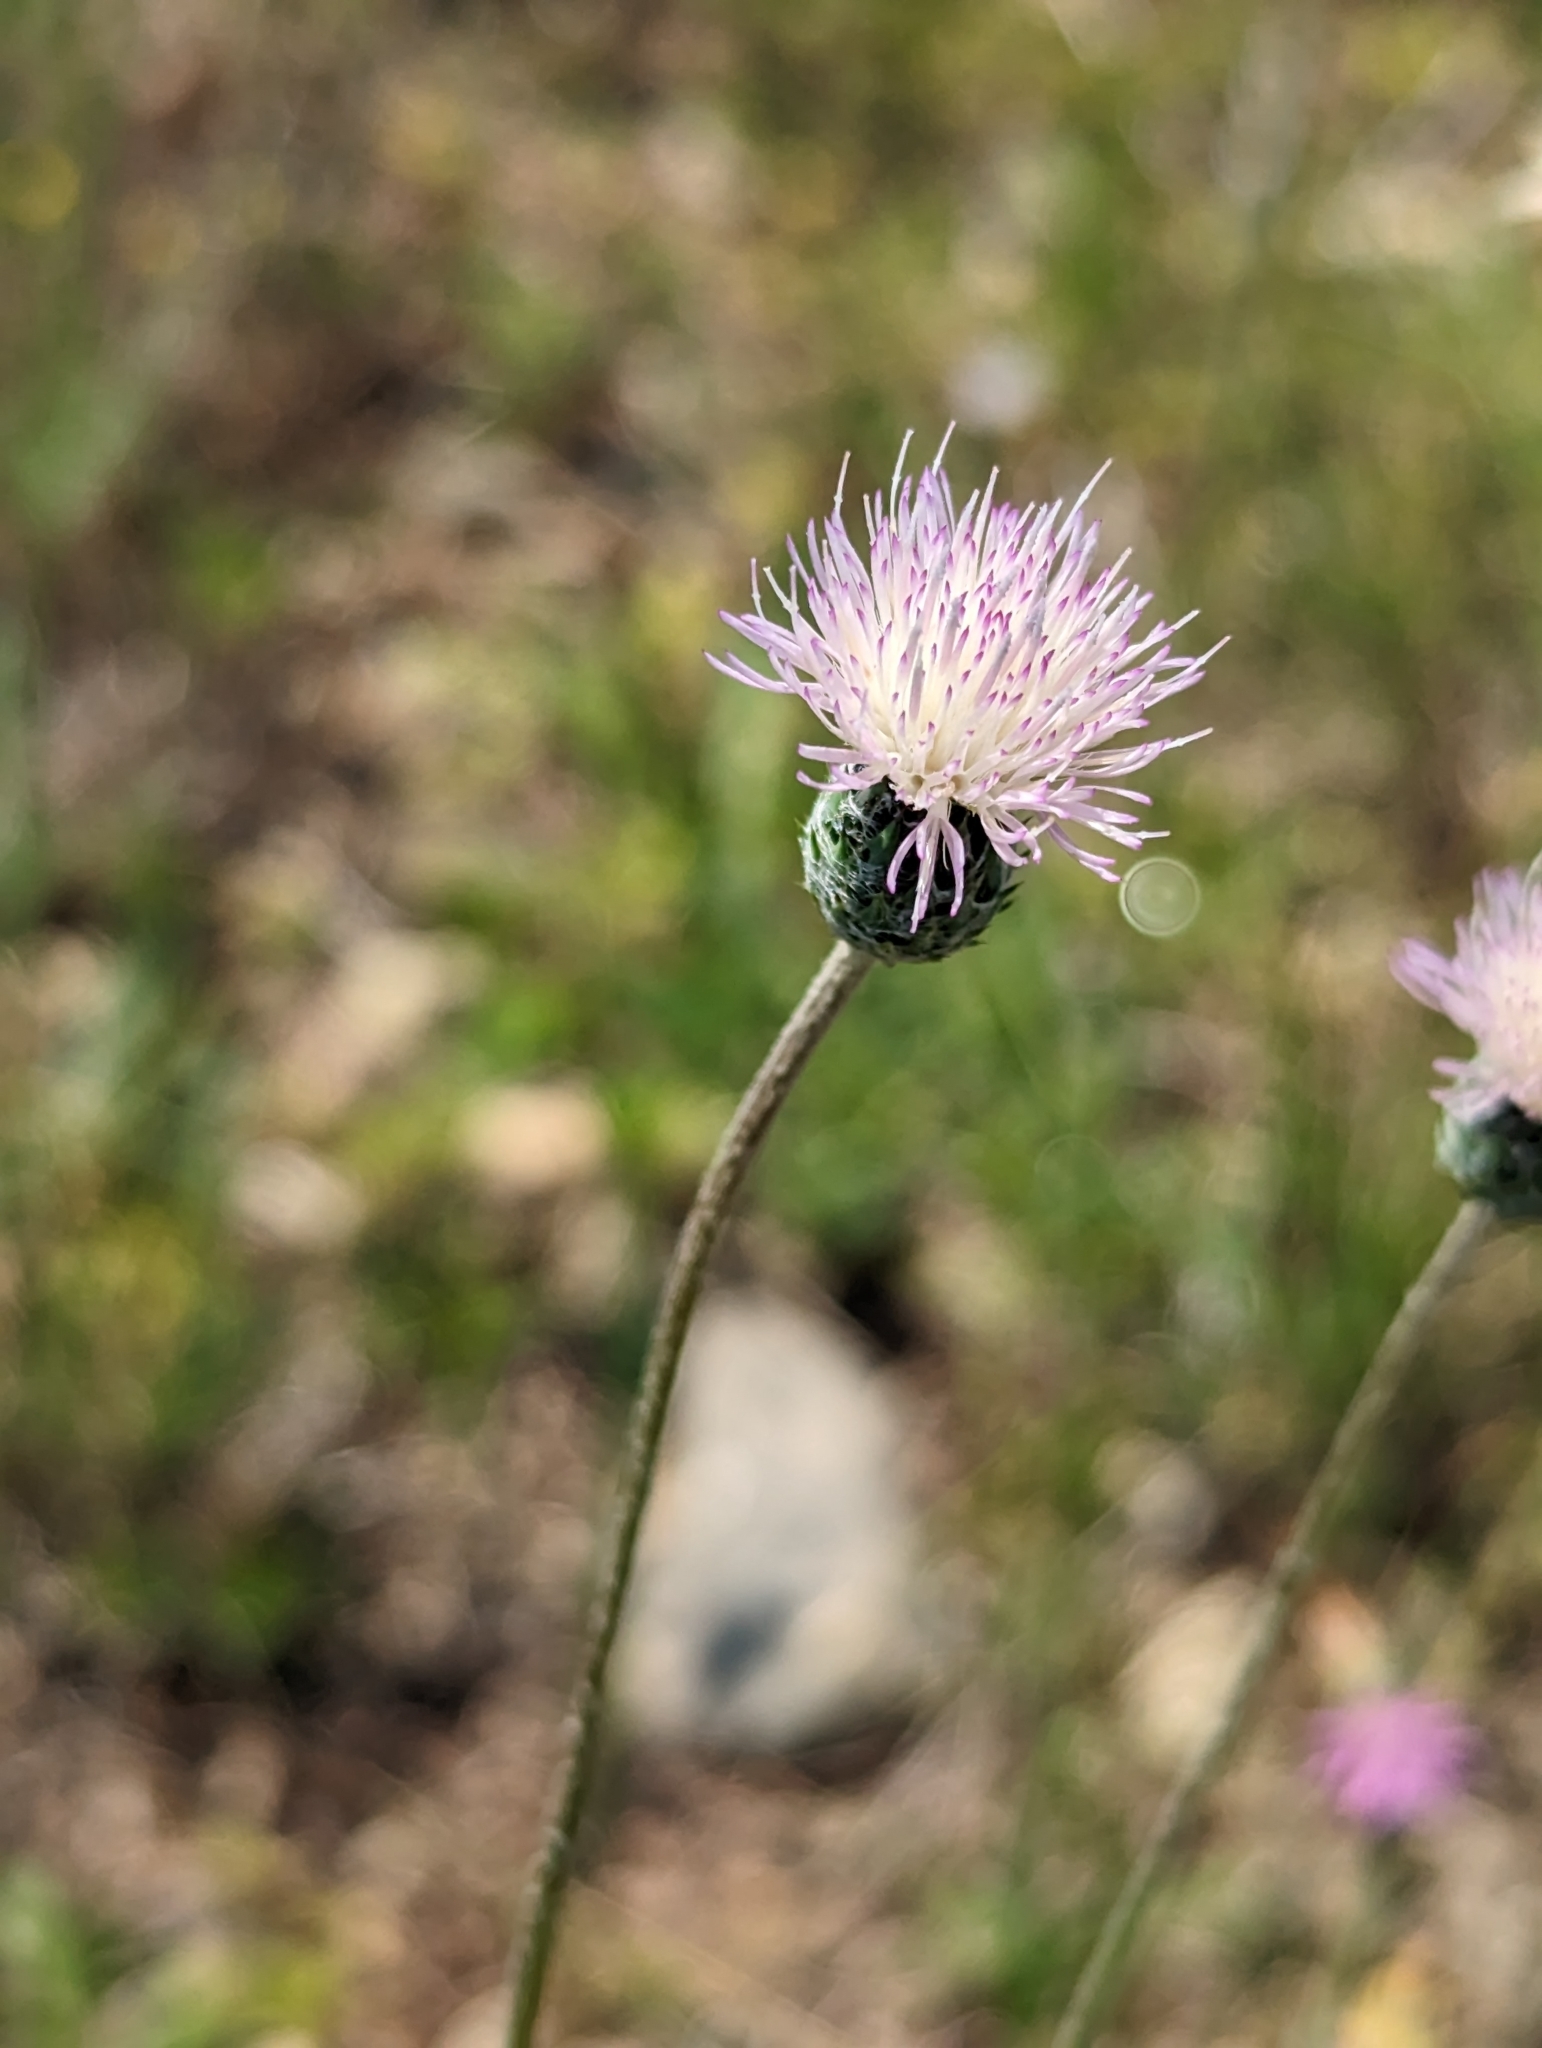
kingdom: Plantae
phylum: Tracheophyta
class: Magnoliopsida
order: Asterales
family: Asteraceae
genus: Tyrimnus
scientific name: Tyrimnus leucographus
